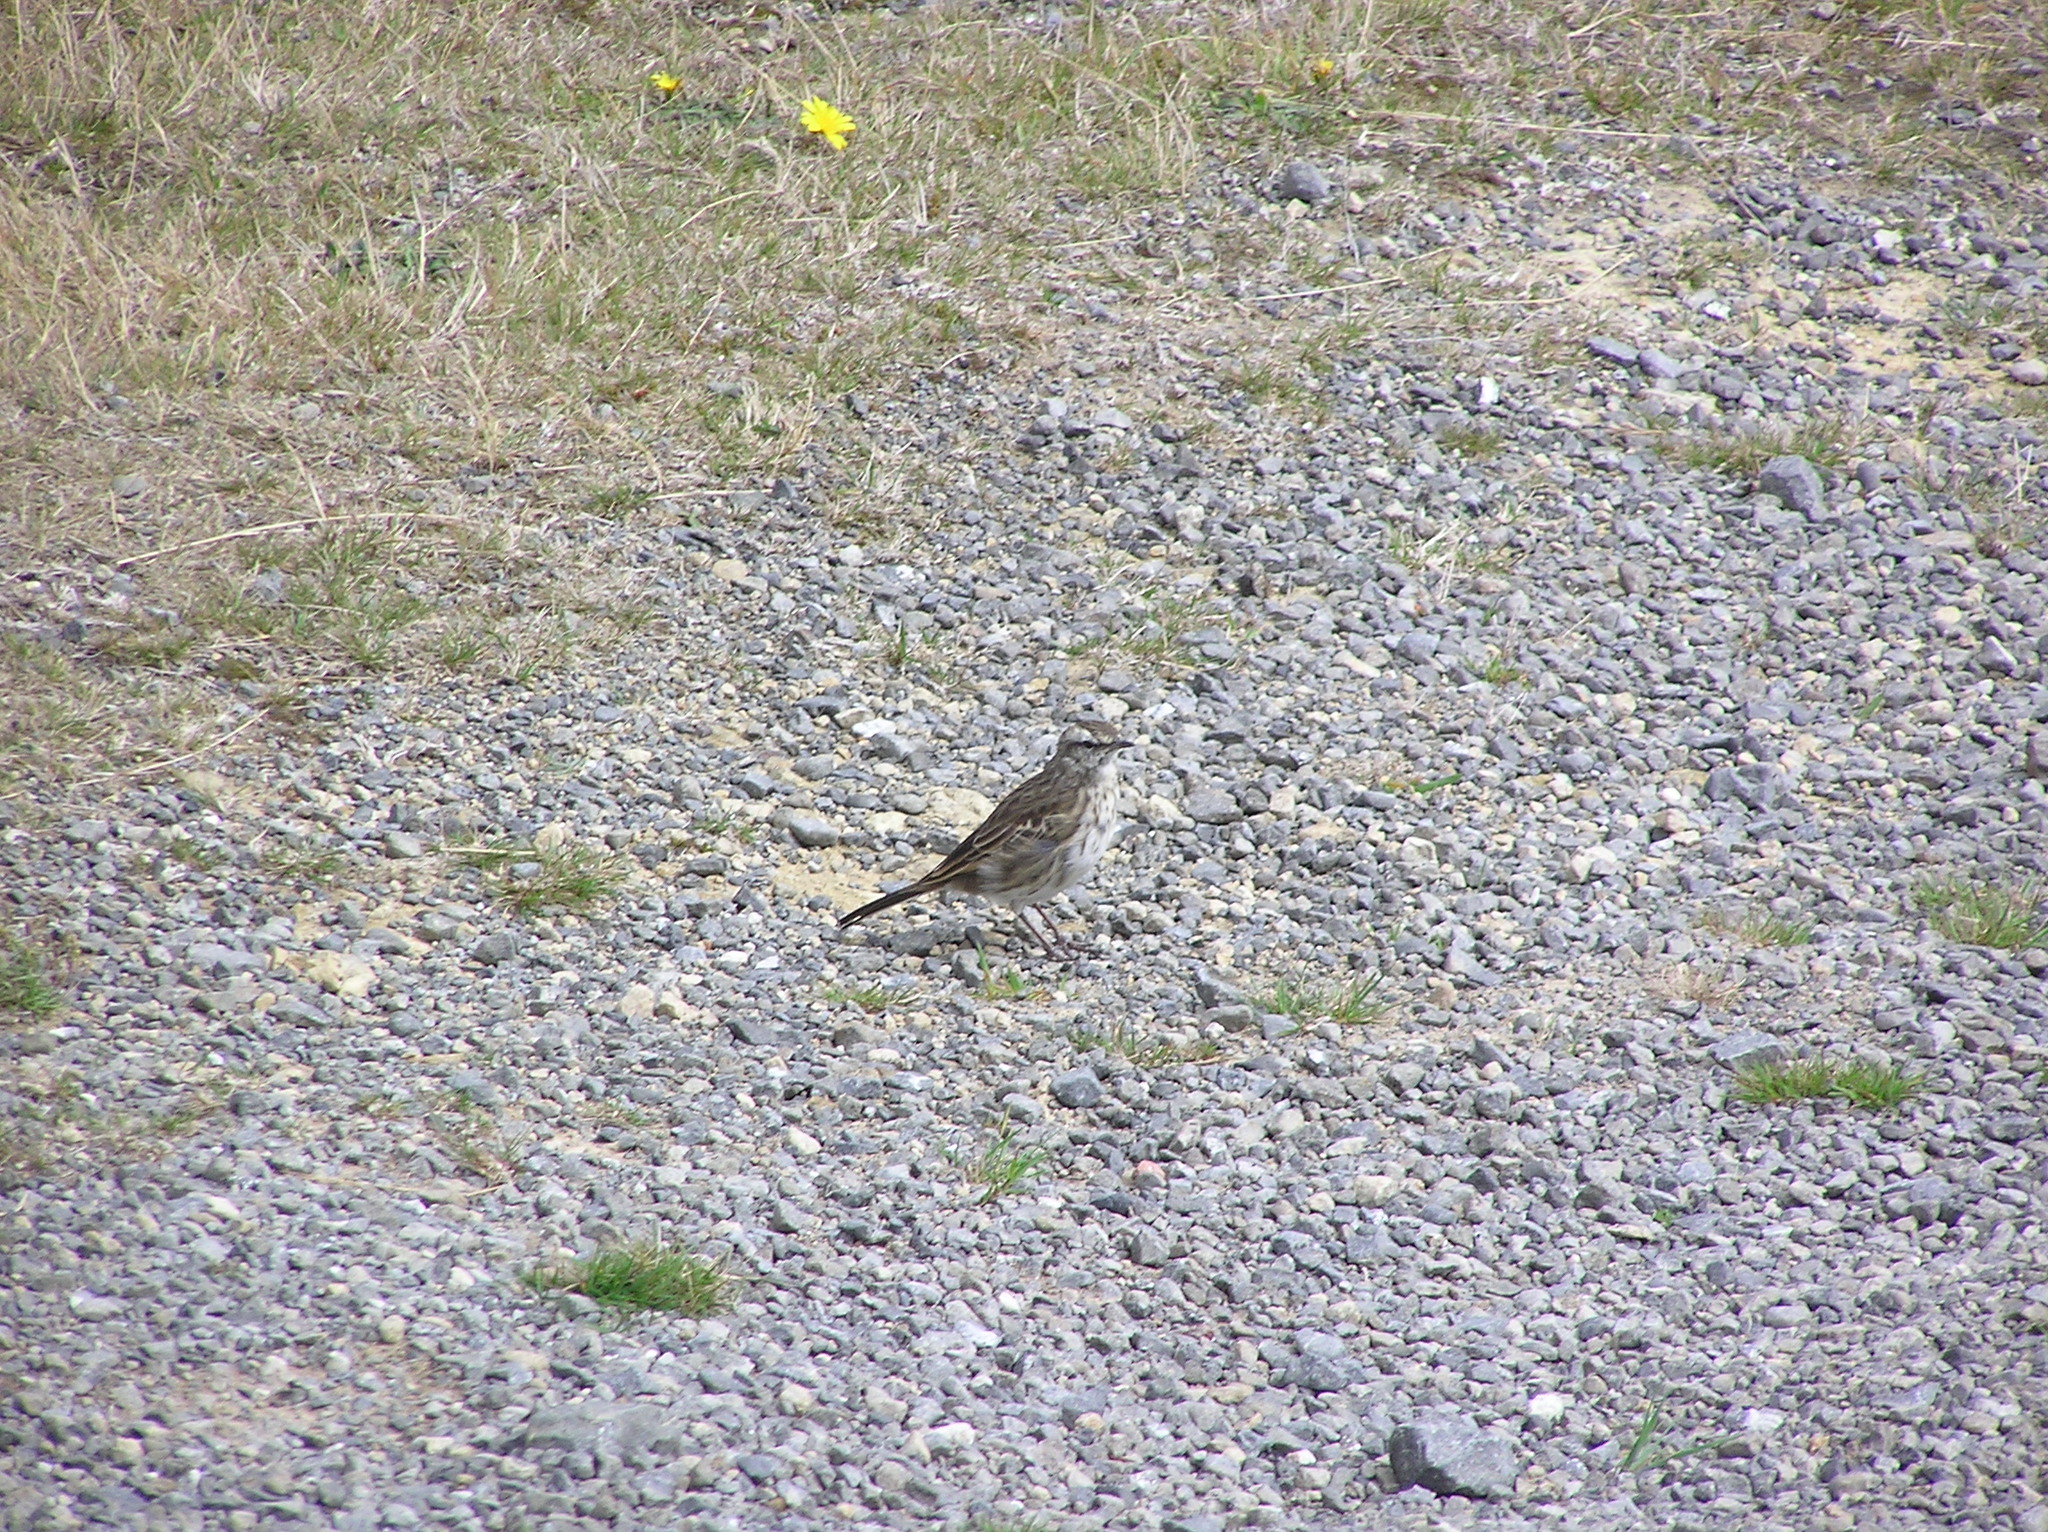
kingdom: Animalia
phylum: Chordata
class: Aves
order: Passeriformes
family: Motacillidae
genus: Anthus
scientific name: Anthus novaeseelandiae
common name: New zealand pipit
